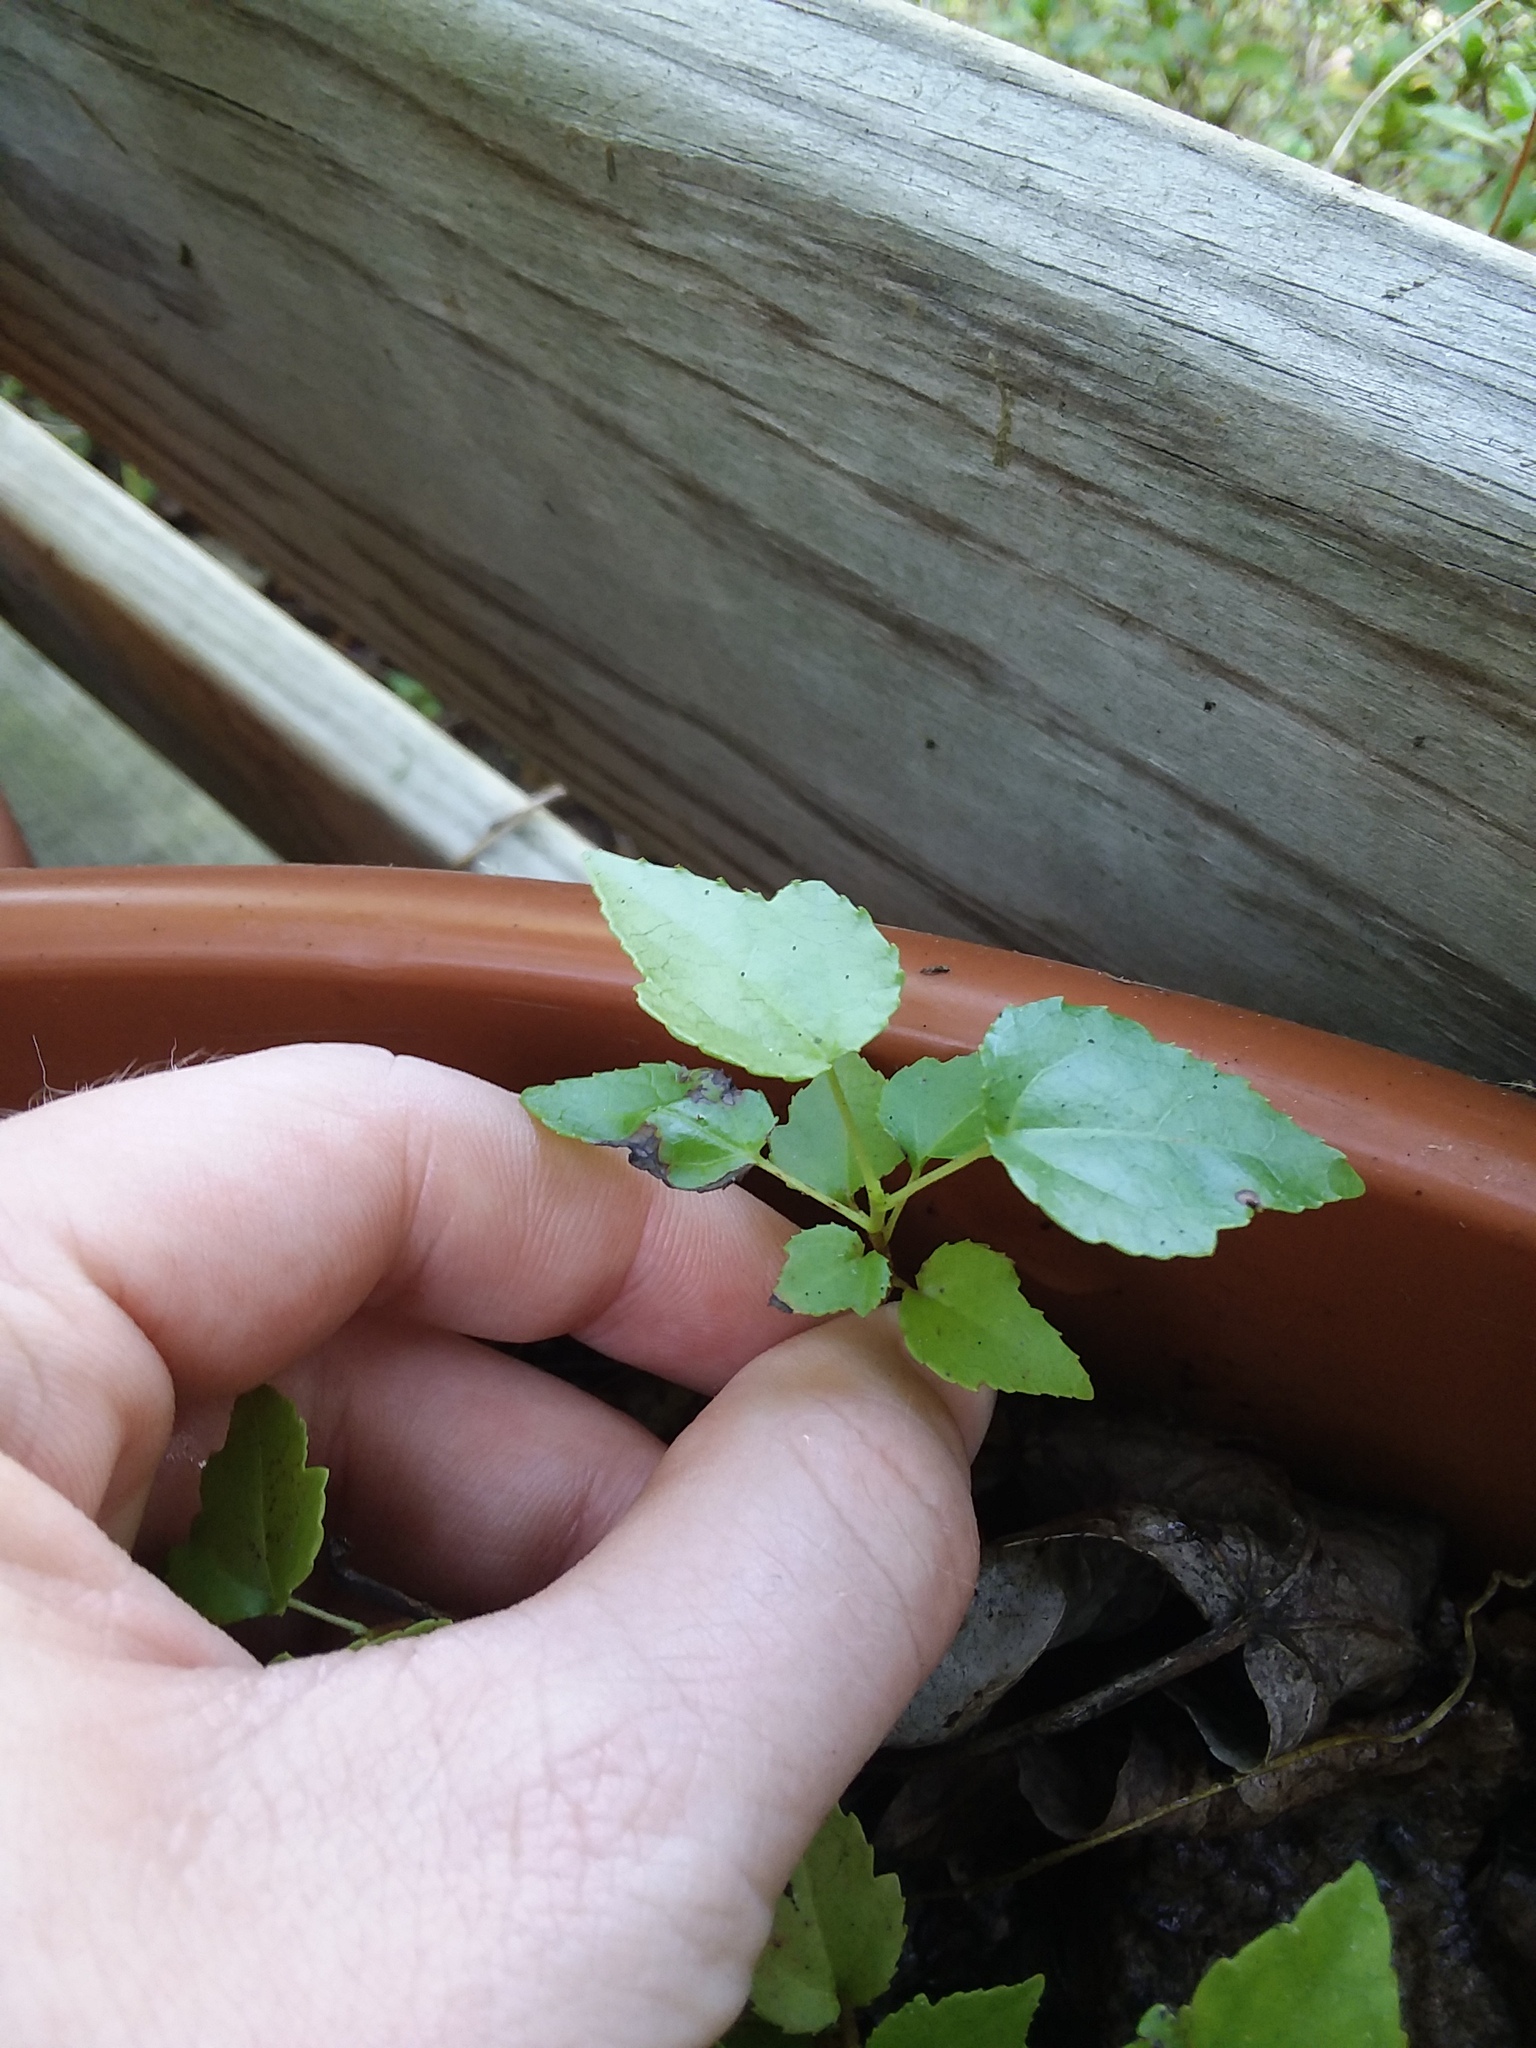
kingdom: Plantae
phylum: Tracheophyta
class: Magnoliopsida
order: Saxifragales
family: Altingiaceae
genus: Liquidambar
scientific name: Liquidambar styraciflua
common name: Sweet gum
